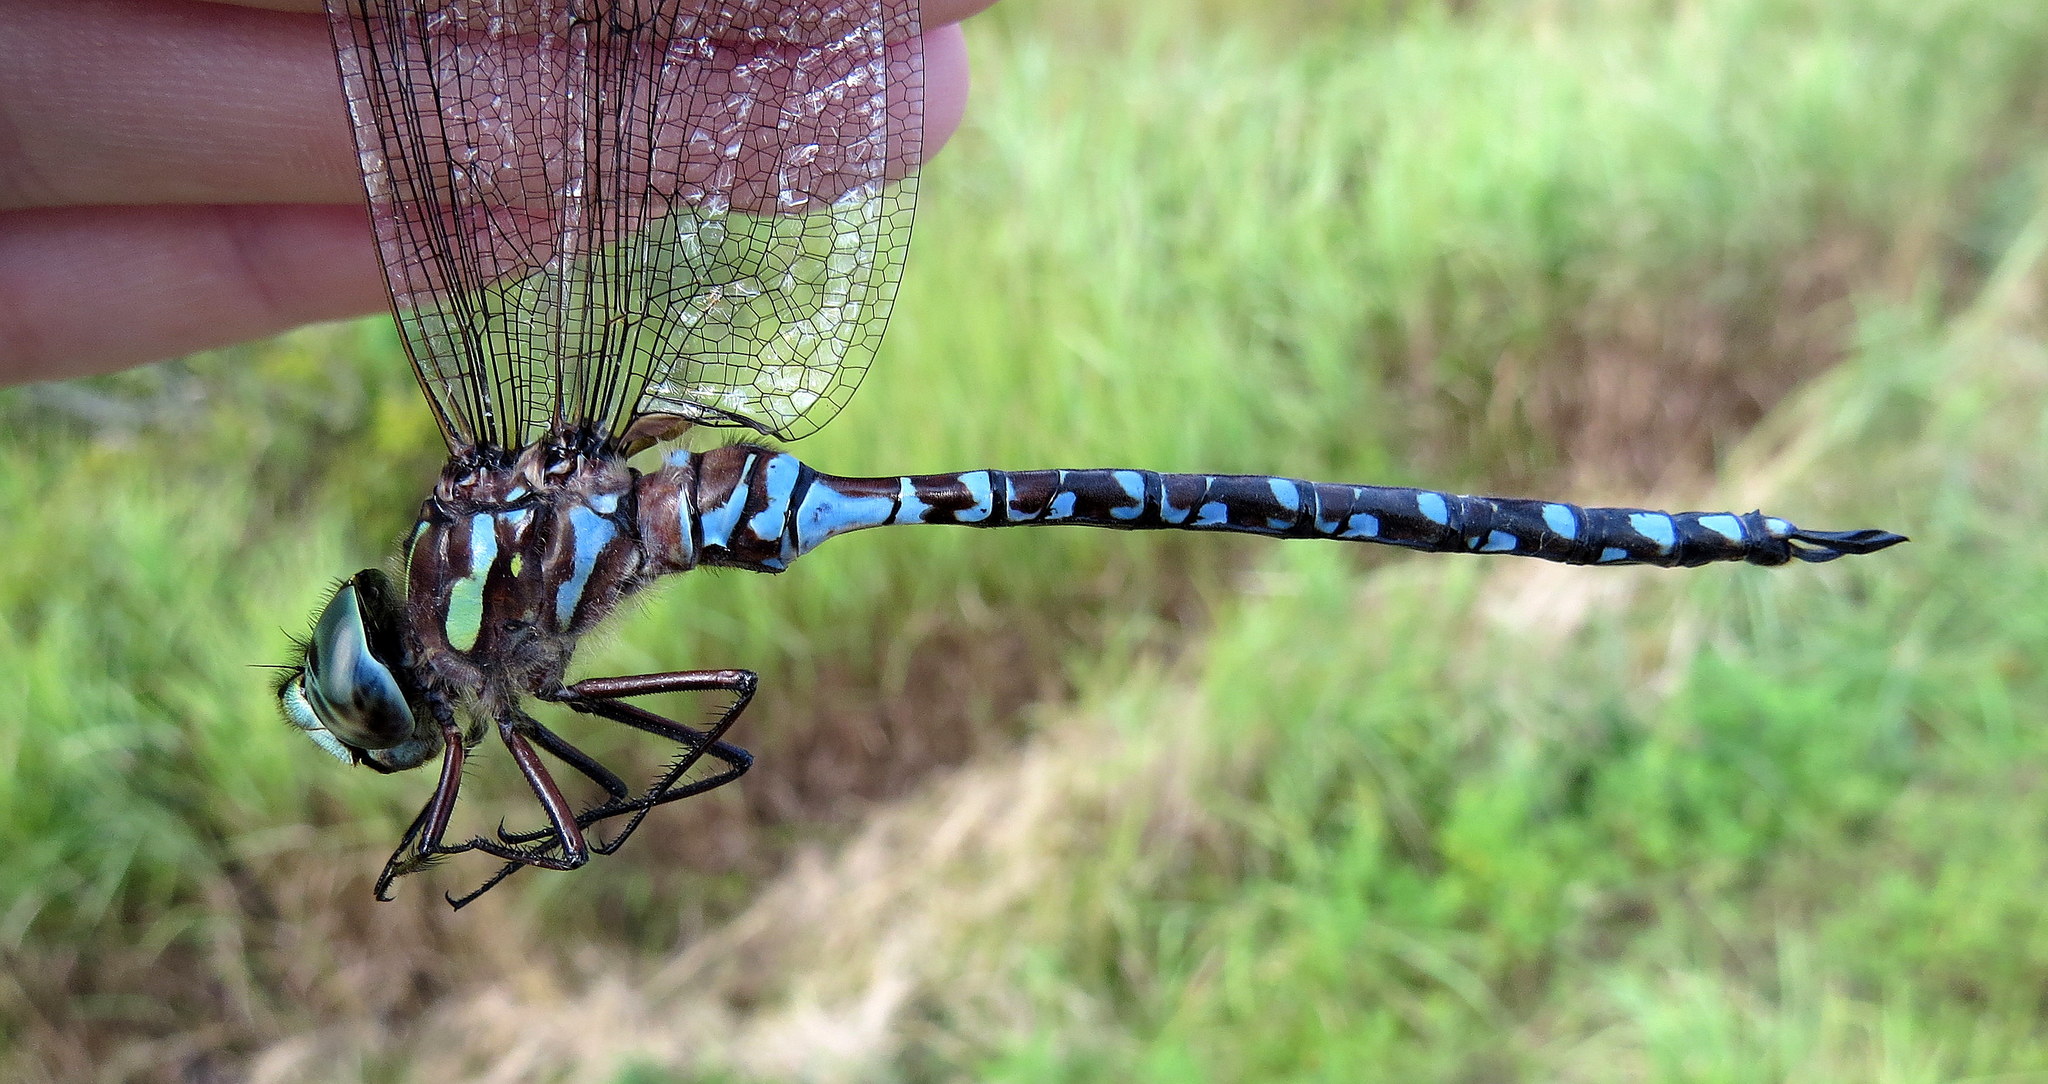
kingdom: Animalia
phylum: Arthropoda
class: Insecta
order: Odonata
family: Aeshnidae
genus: Aeshna
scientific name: Aeshna canadensis
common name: Canada darner
